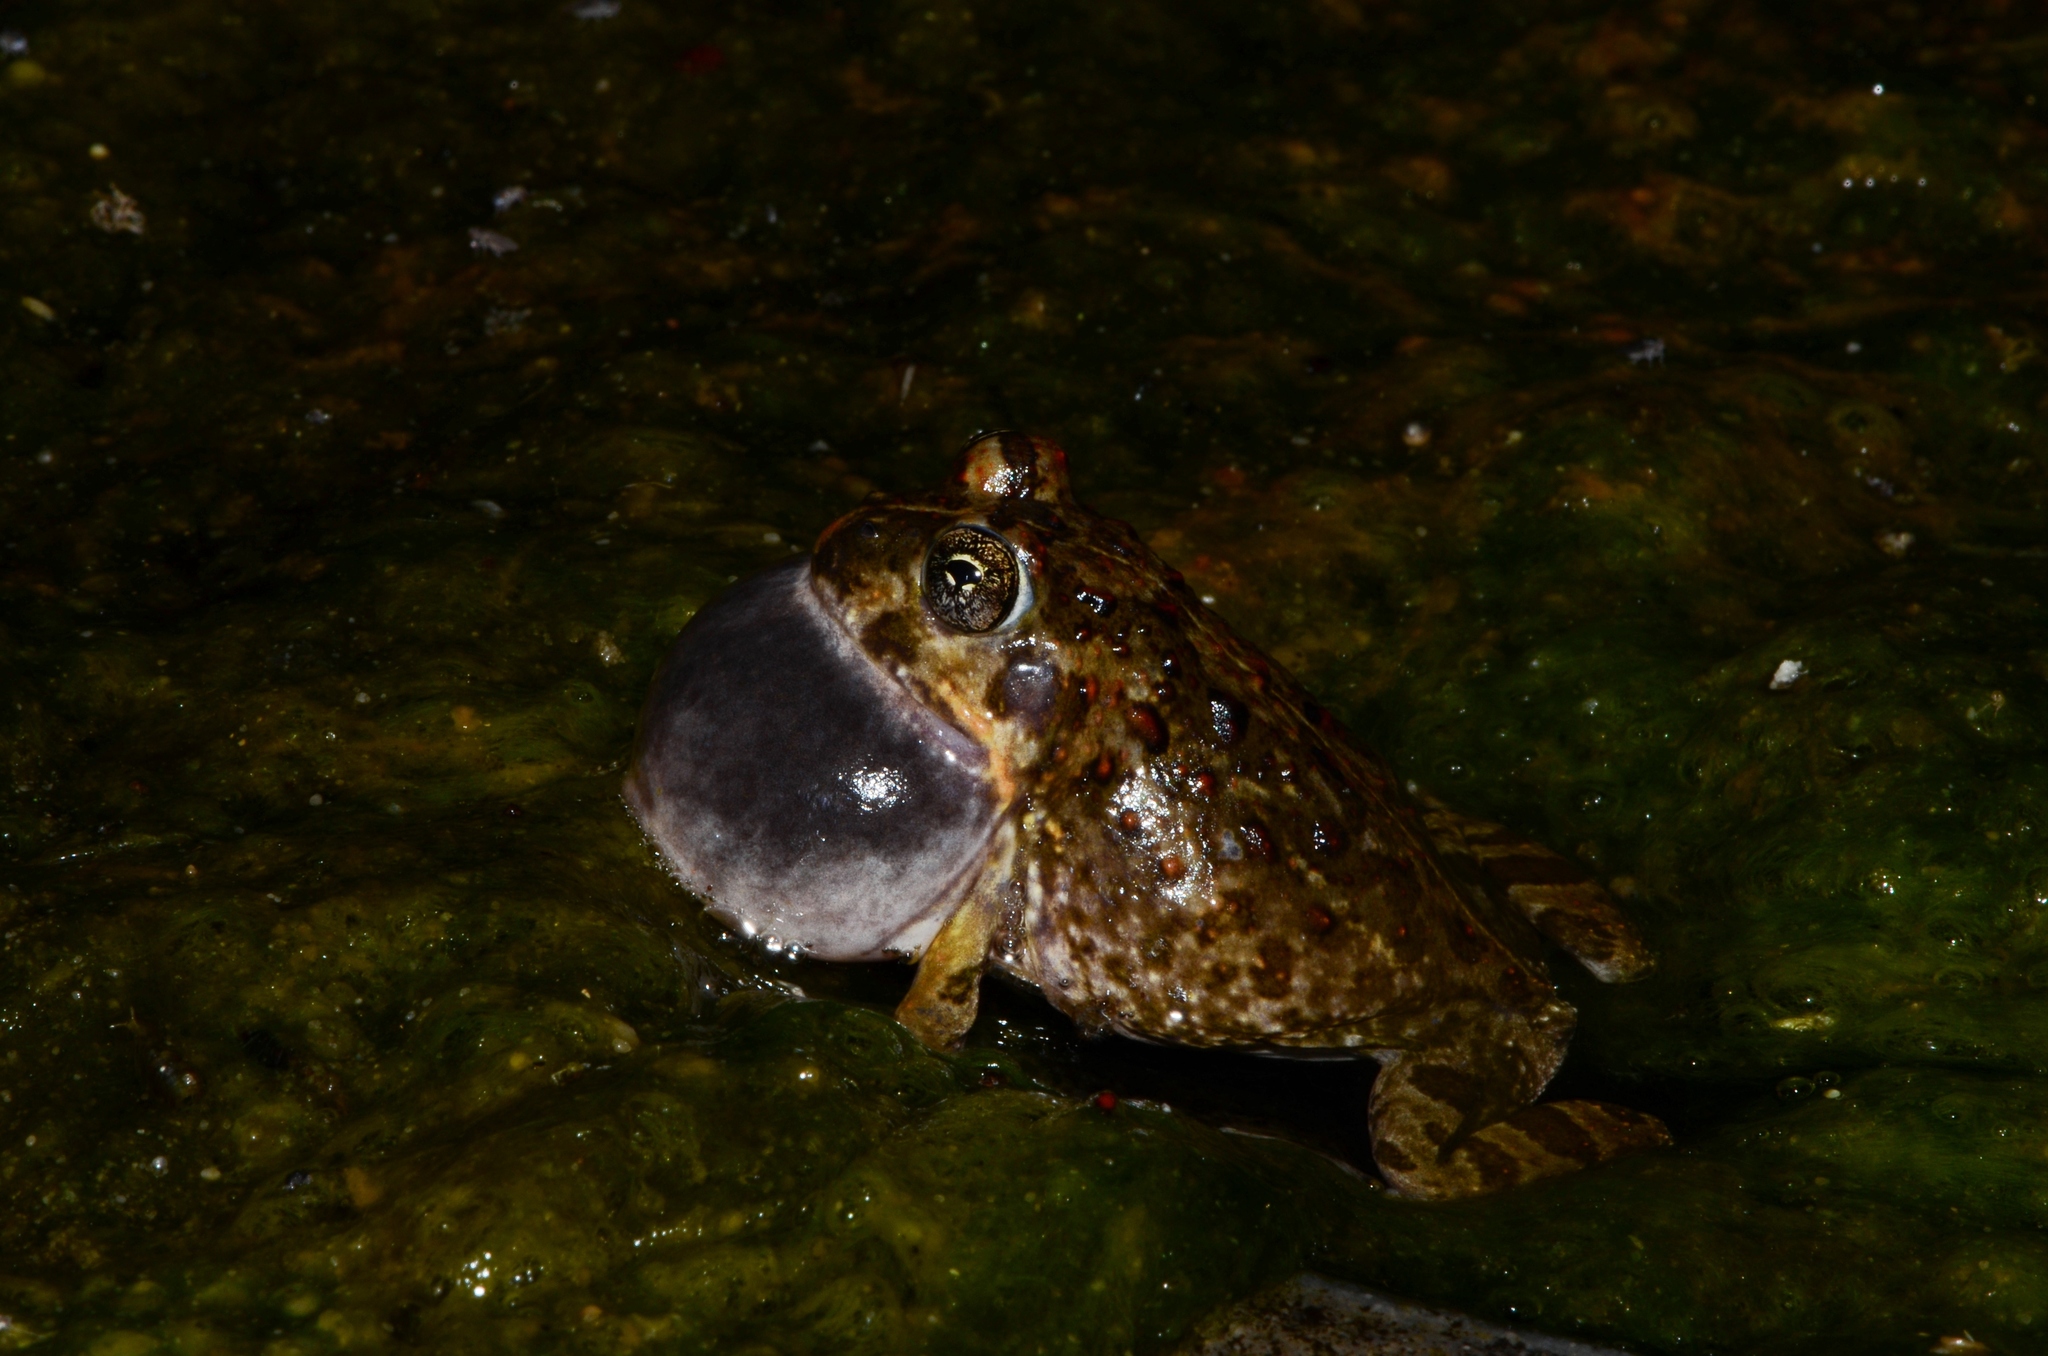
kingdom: Animalia
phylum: Chordata
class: Amphibia
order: Anura
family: Pyxicephalidae
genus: Tomopterna
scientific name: Tomopterna delalandii
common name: Delalande's burrowing bullfrog
